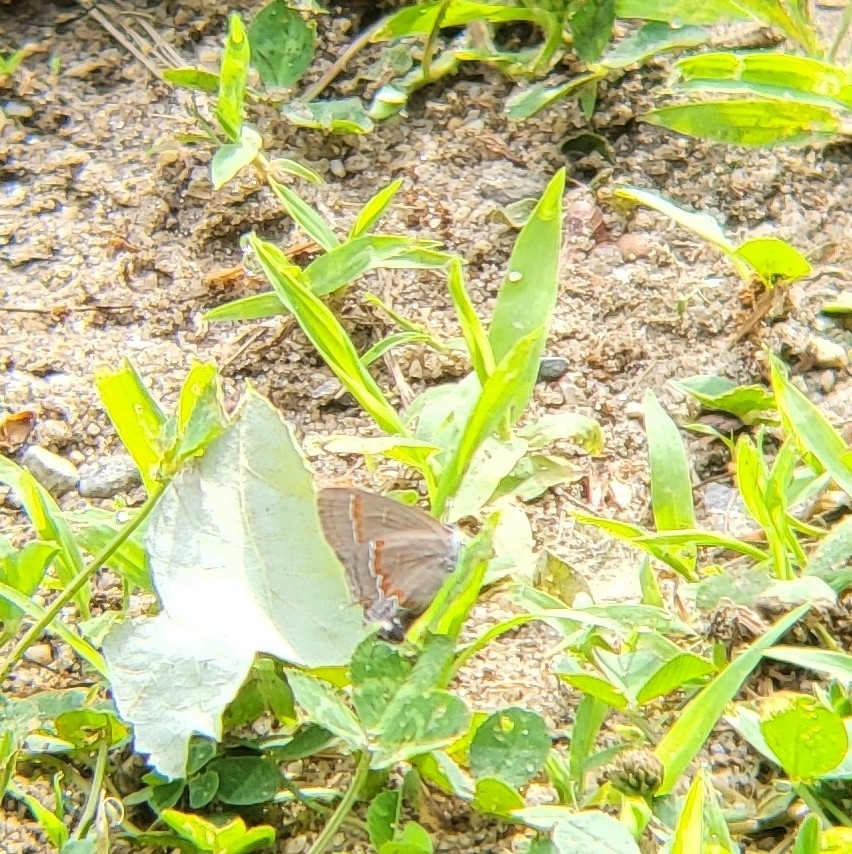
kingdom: Animalia
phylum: Arthropoda
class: Insecta
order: Lepidoptera
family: Lycaenidae
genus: Calycopis
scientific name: Calycopis cecrops
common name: Red-banded hairstreak
